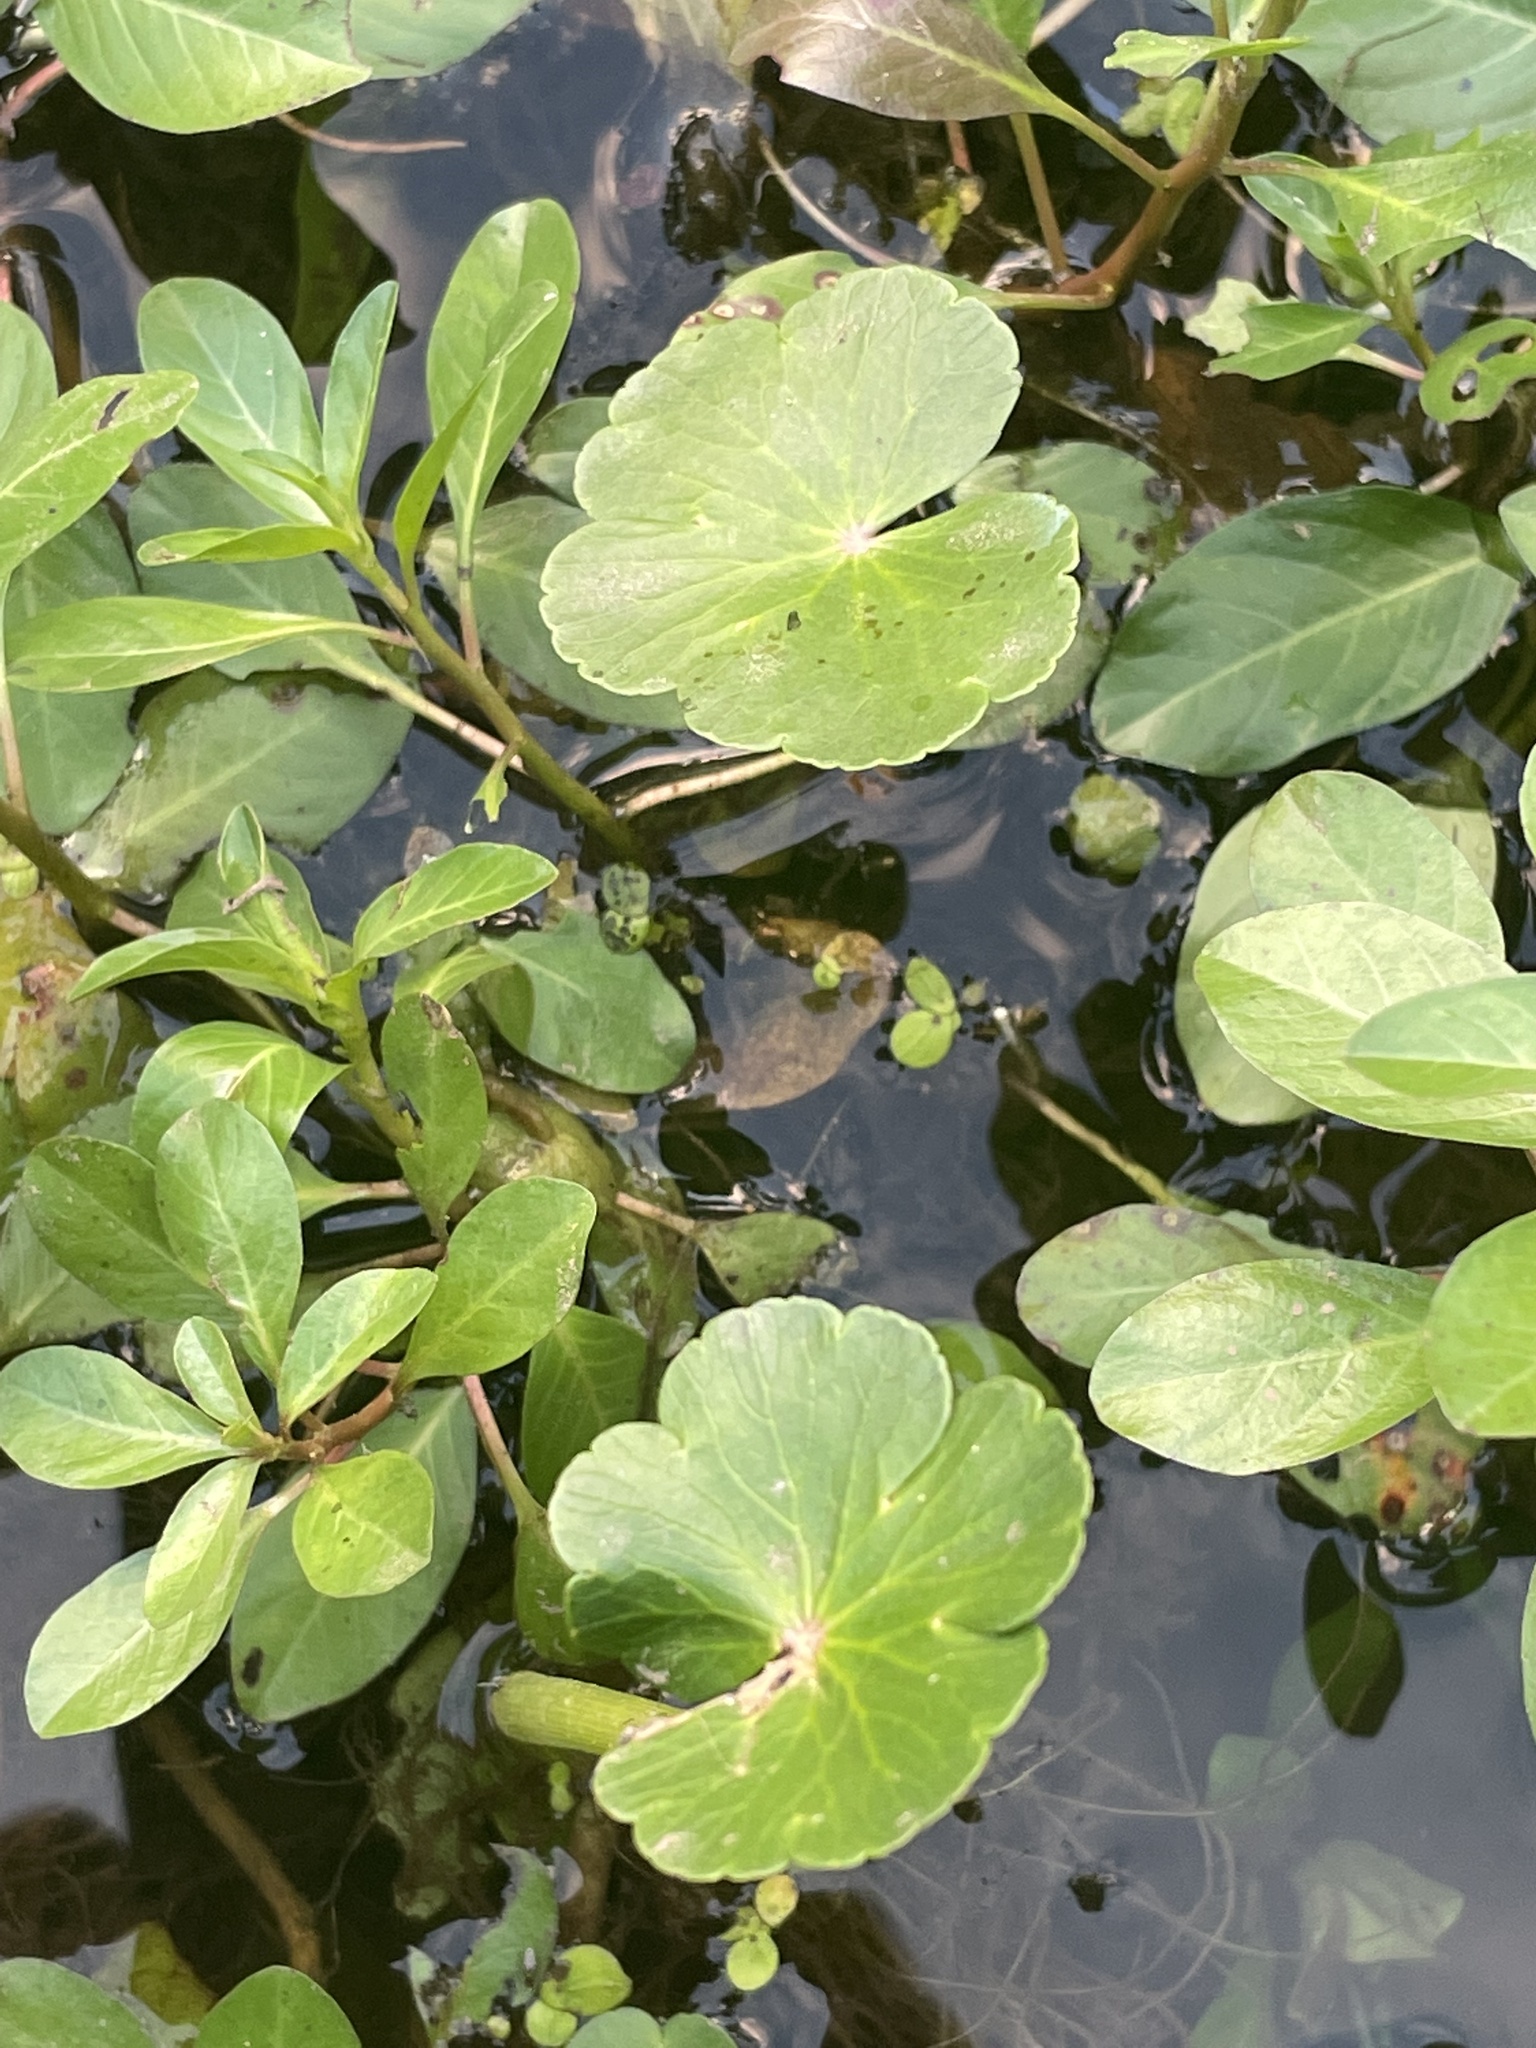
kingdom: Plantae
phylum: Tracheophyta
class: Magnoliopsida
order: Apiales
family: Araliaceae
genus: Hydrocotyle
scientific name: Hydrocotyle ranunculoides
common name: Floating pennywort
